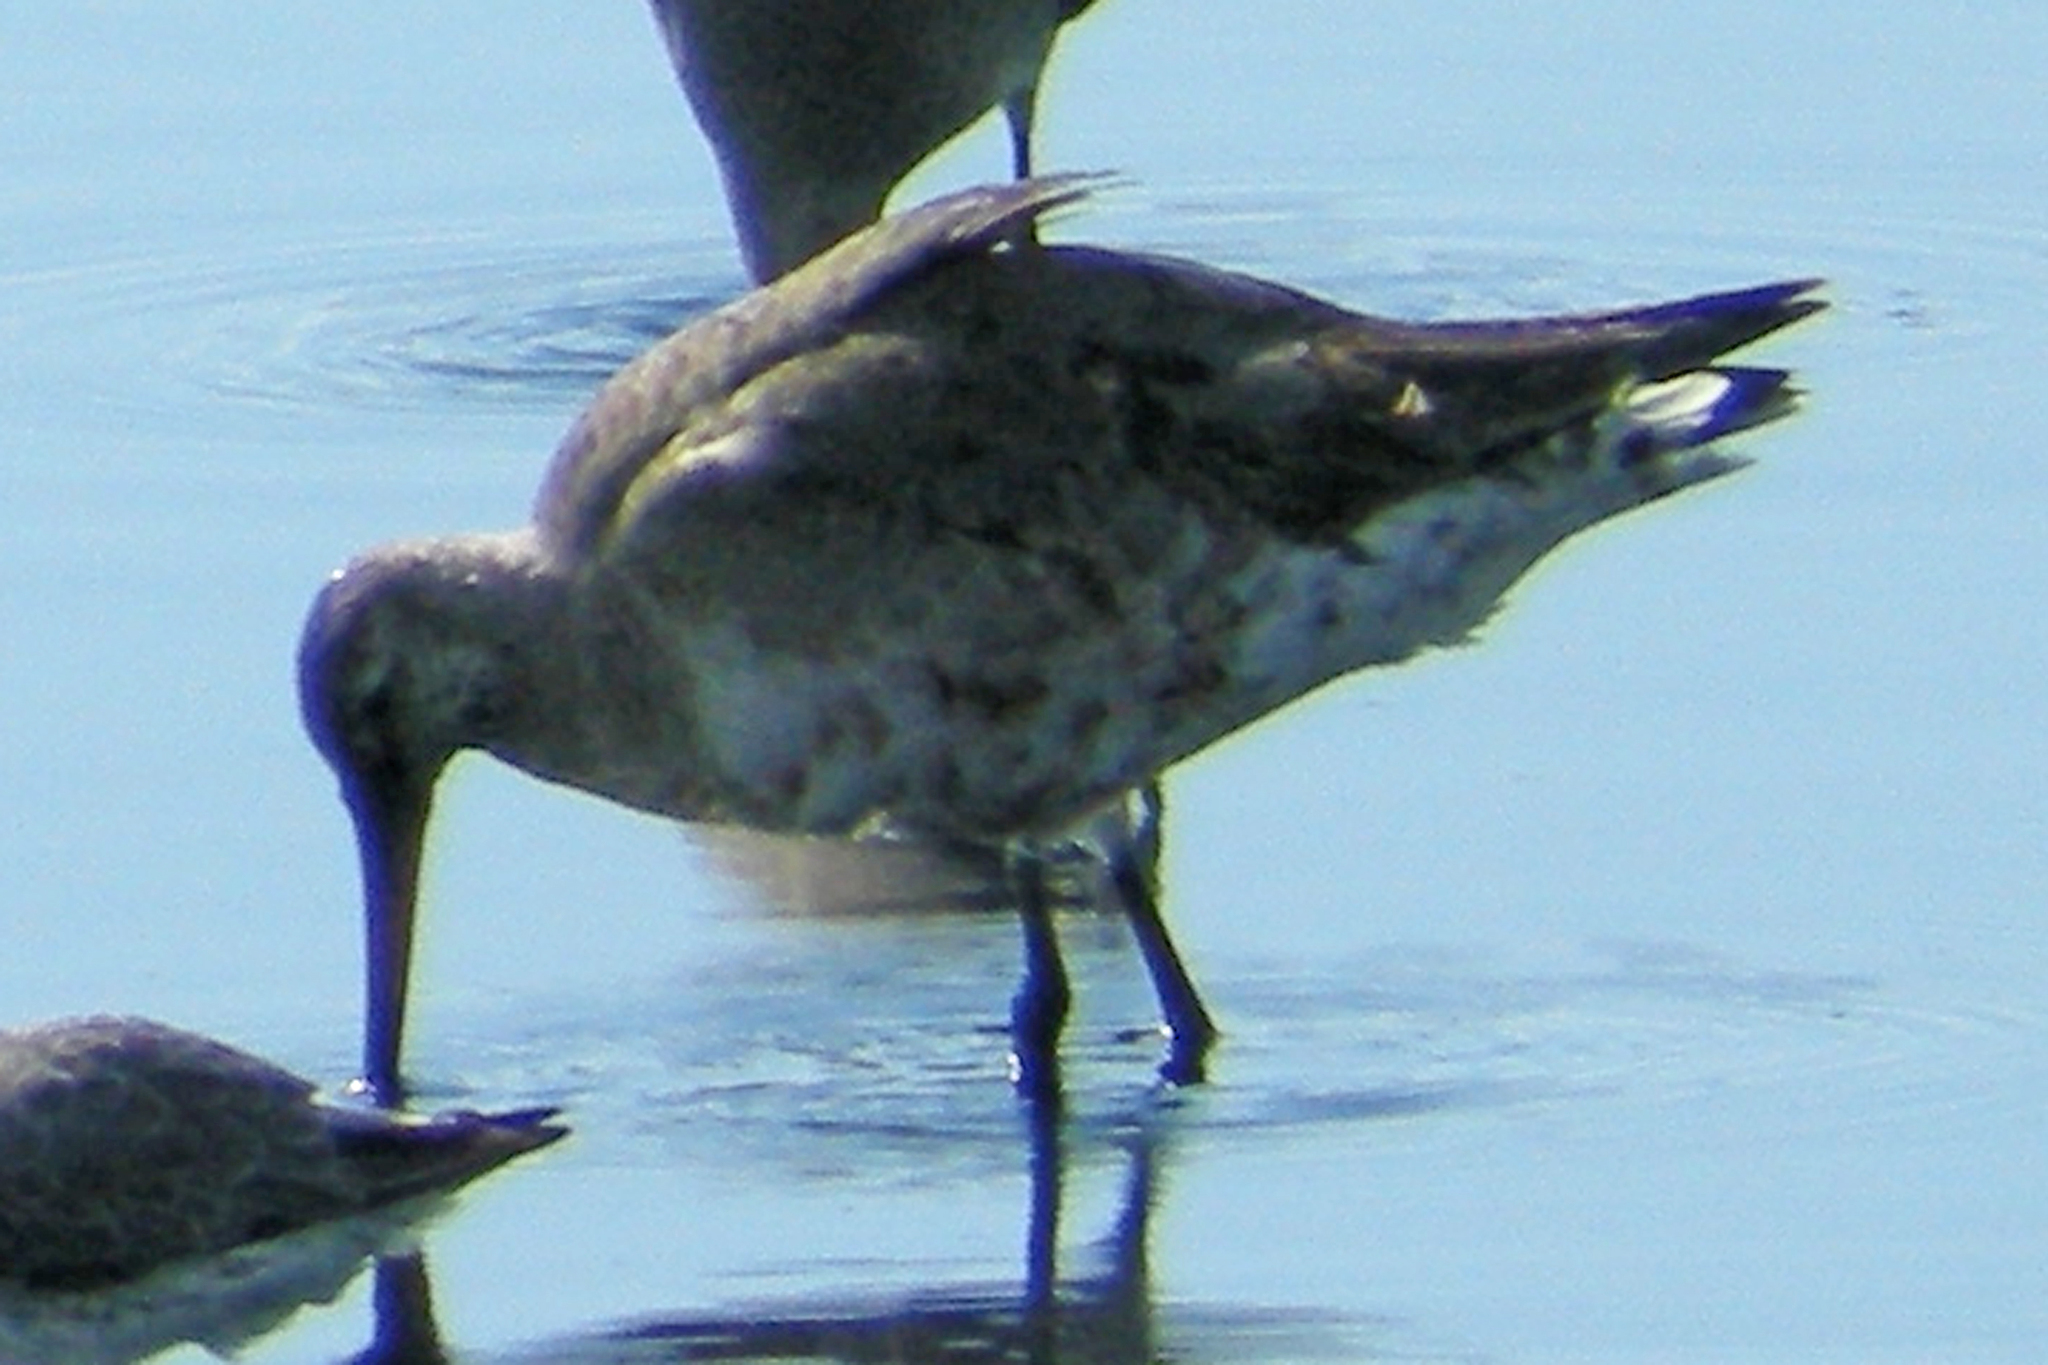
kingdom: Animalia
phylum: Chordata
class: Aves
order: Charadriiformes
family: Scolopacidae
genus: Limosa
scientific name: Limosa haemastica
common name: Hudsonian godwit
